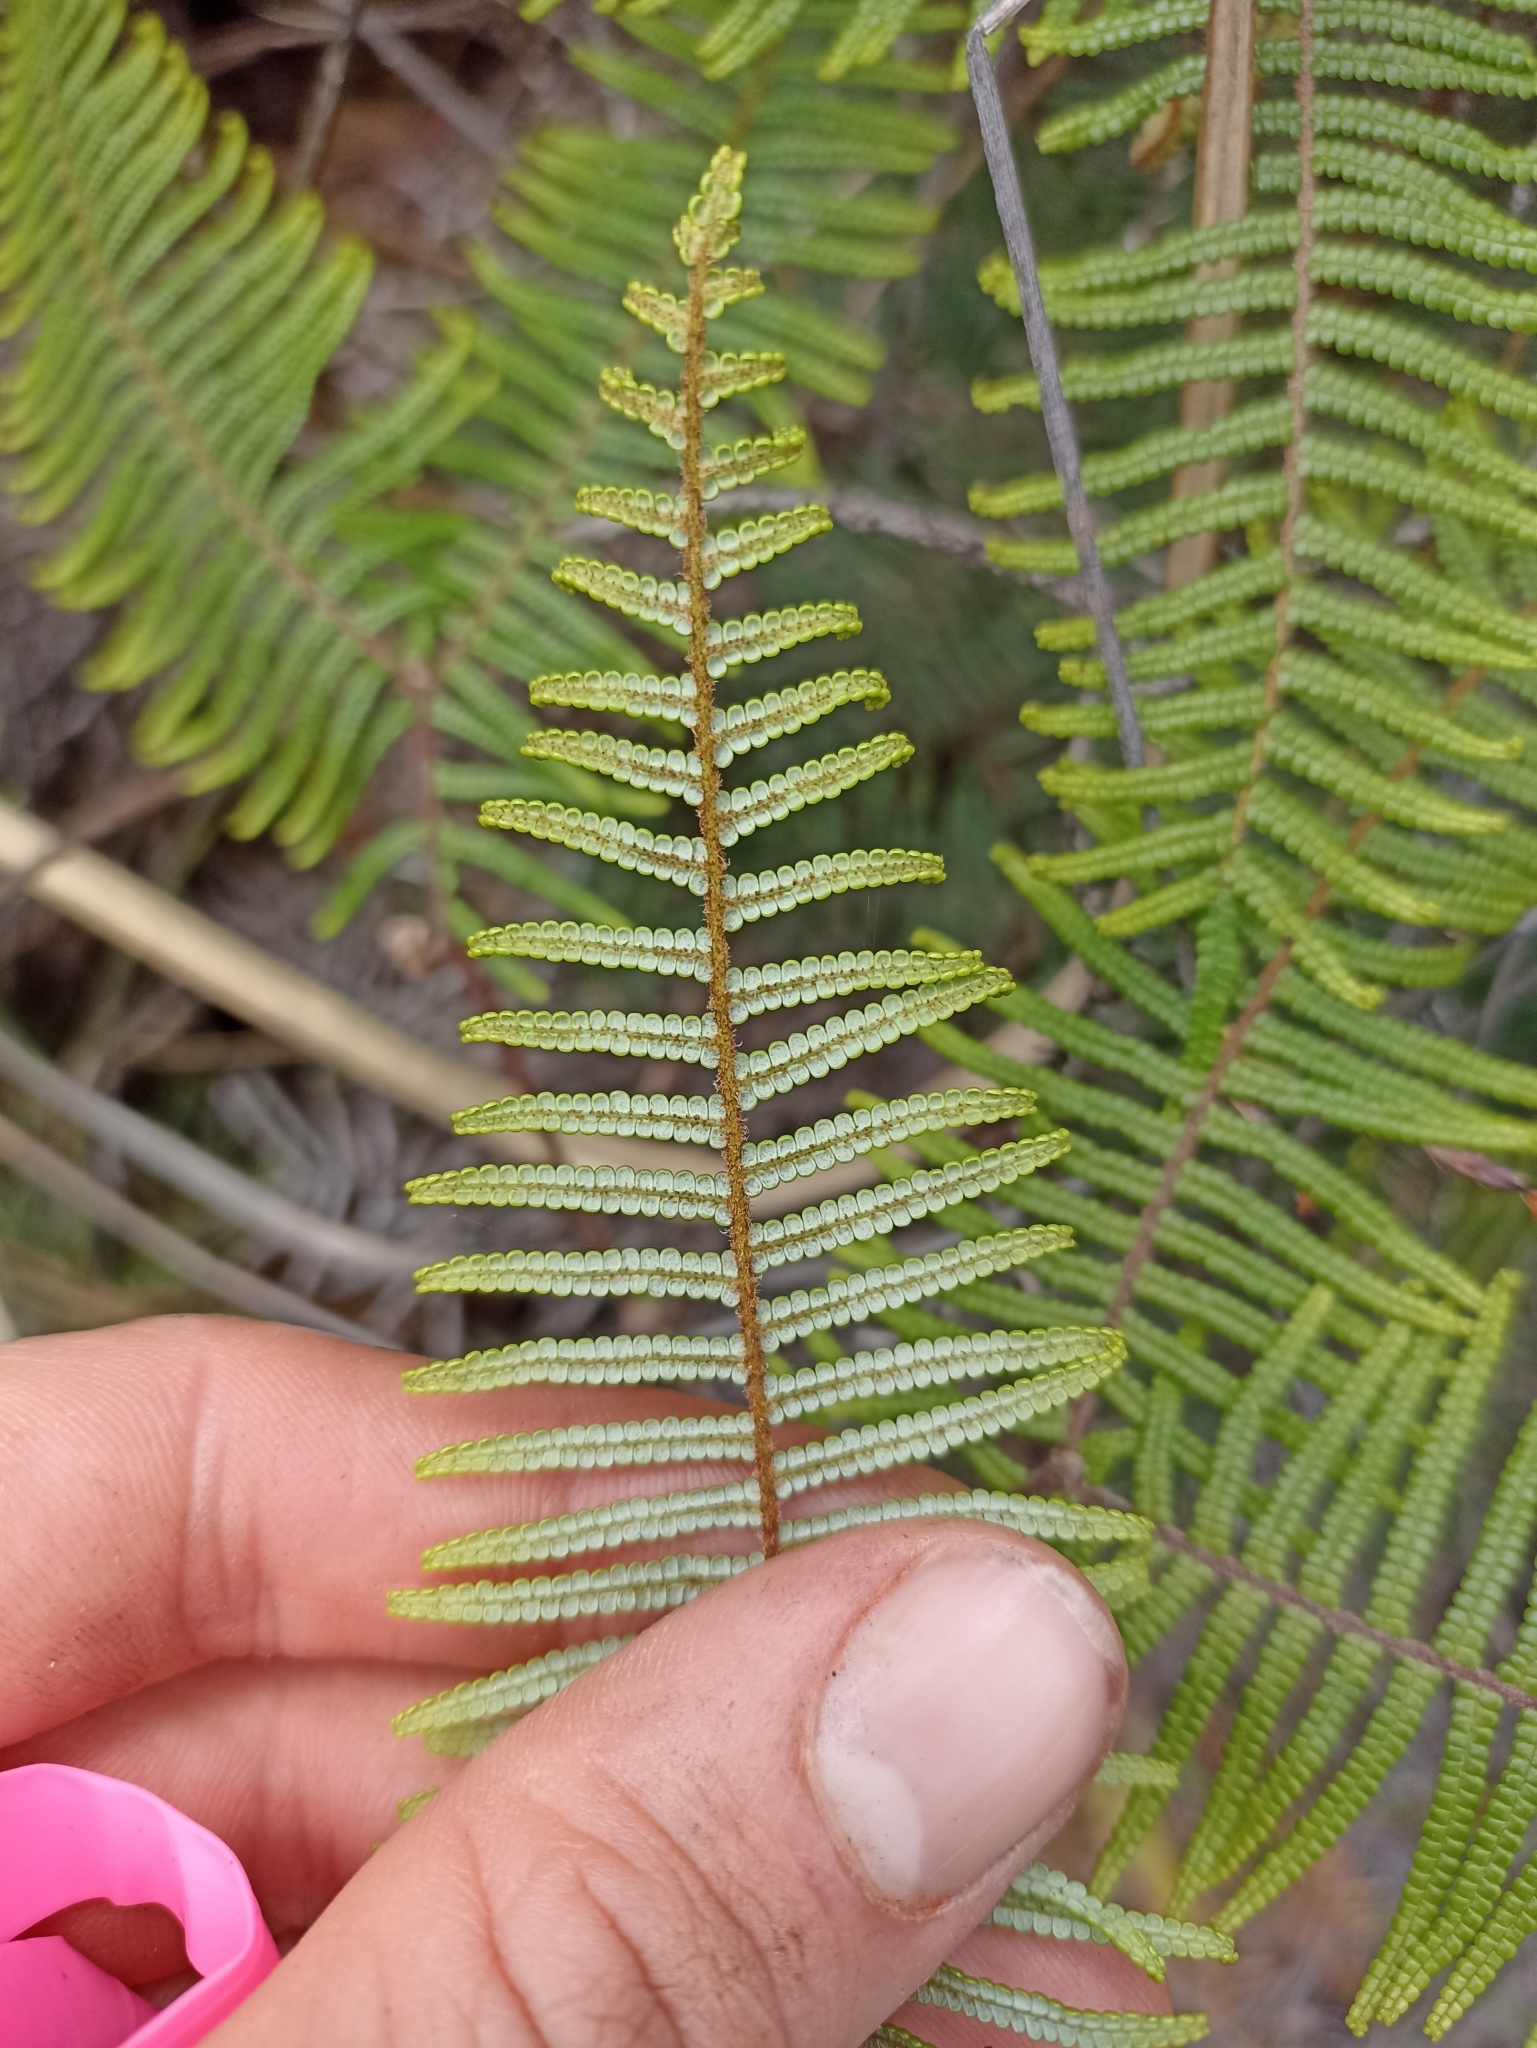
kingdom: Plantae
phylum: Tracheophyta
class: Polypodiopsida
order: Gleicheniales
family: Gleicheniaceae
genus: Gleichenia
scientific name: Gleichenia dicarpa
